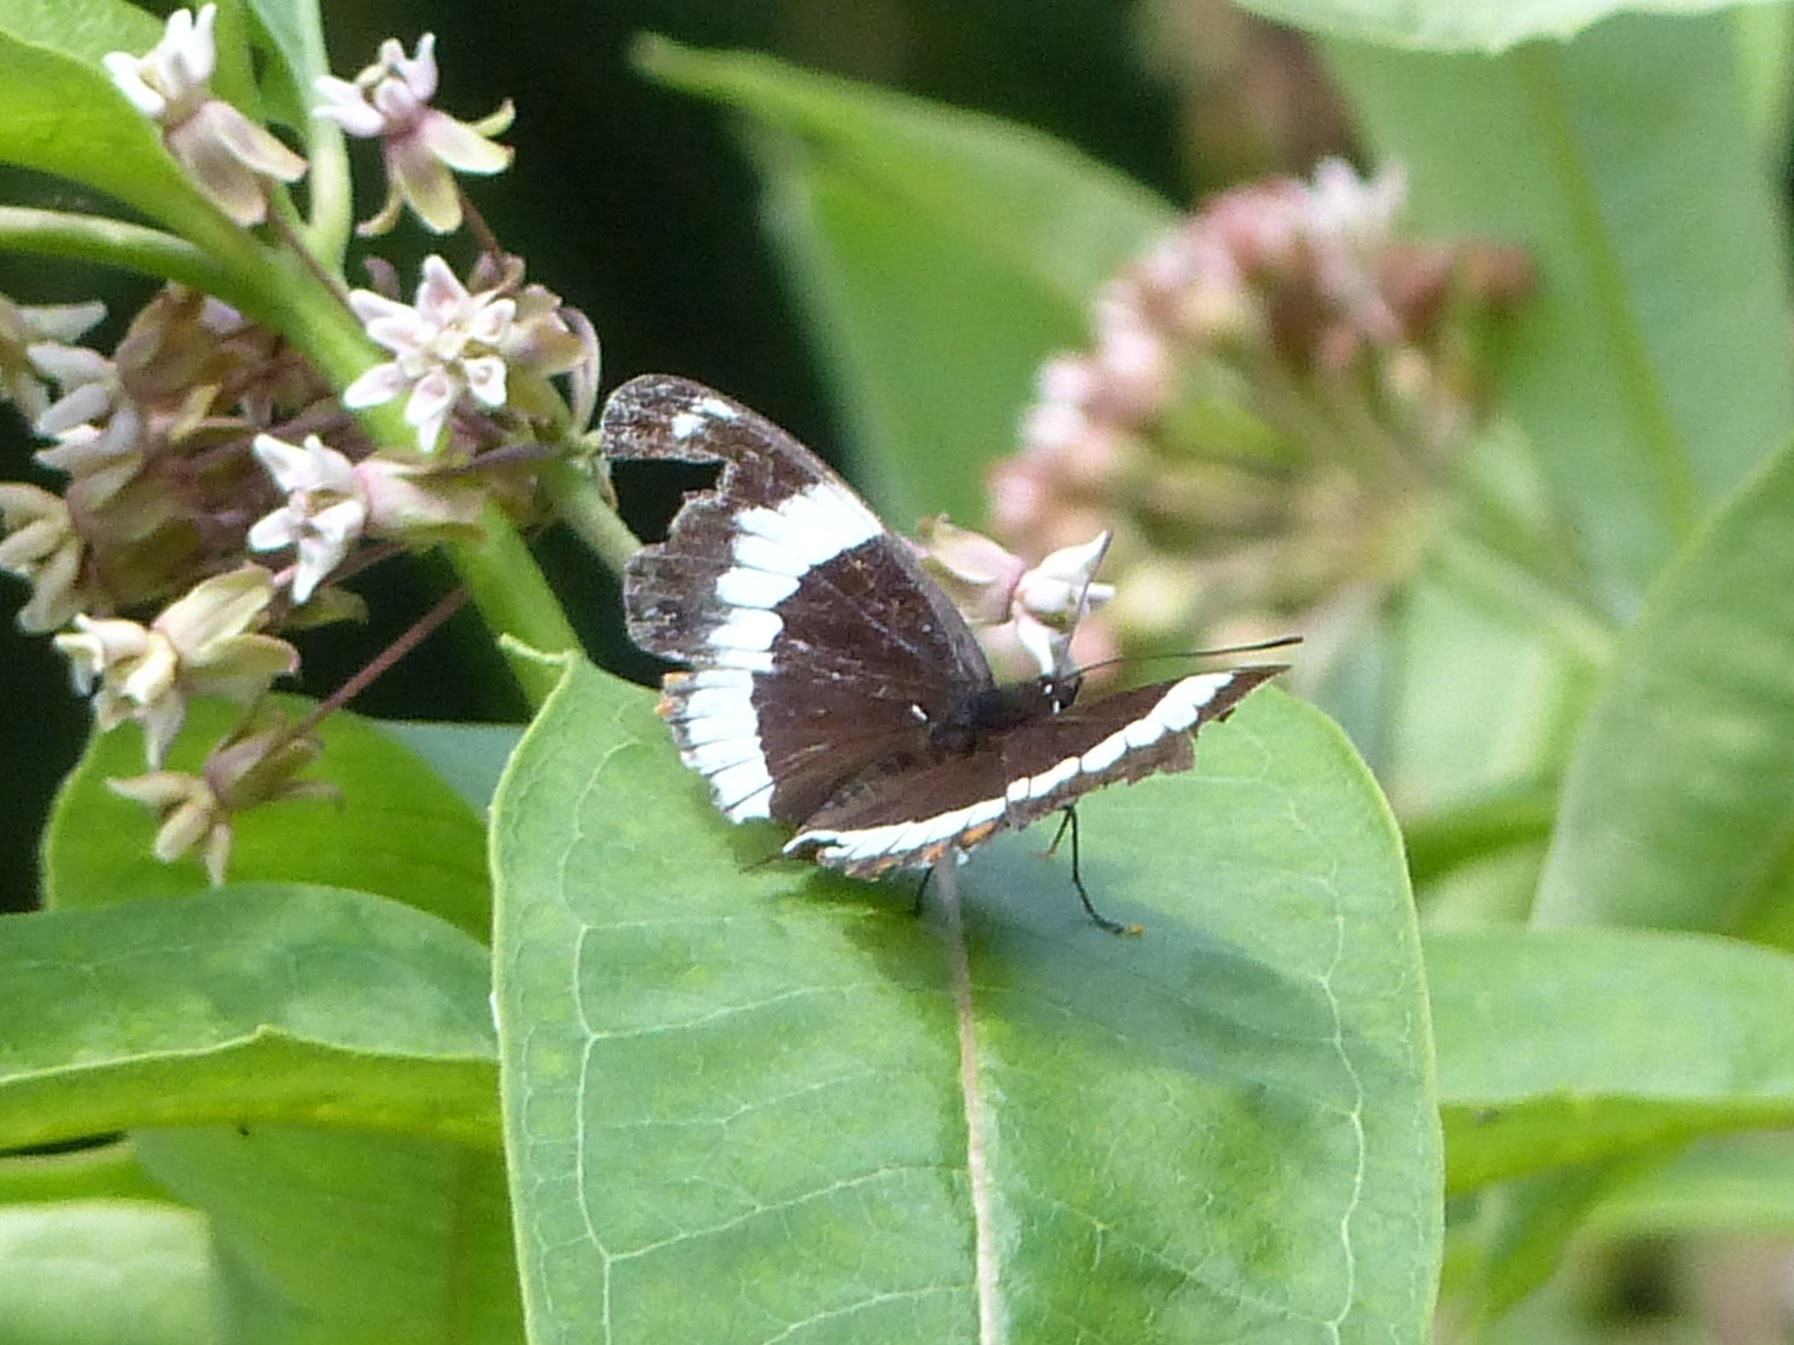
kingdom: Animalia
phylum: Arthropoda
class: Insecta
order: Lepidoptera
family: Nymphalidae
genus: Limenitis
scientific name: Limenitis arthemis
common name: Red-spotted admiral
